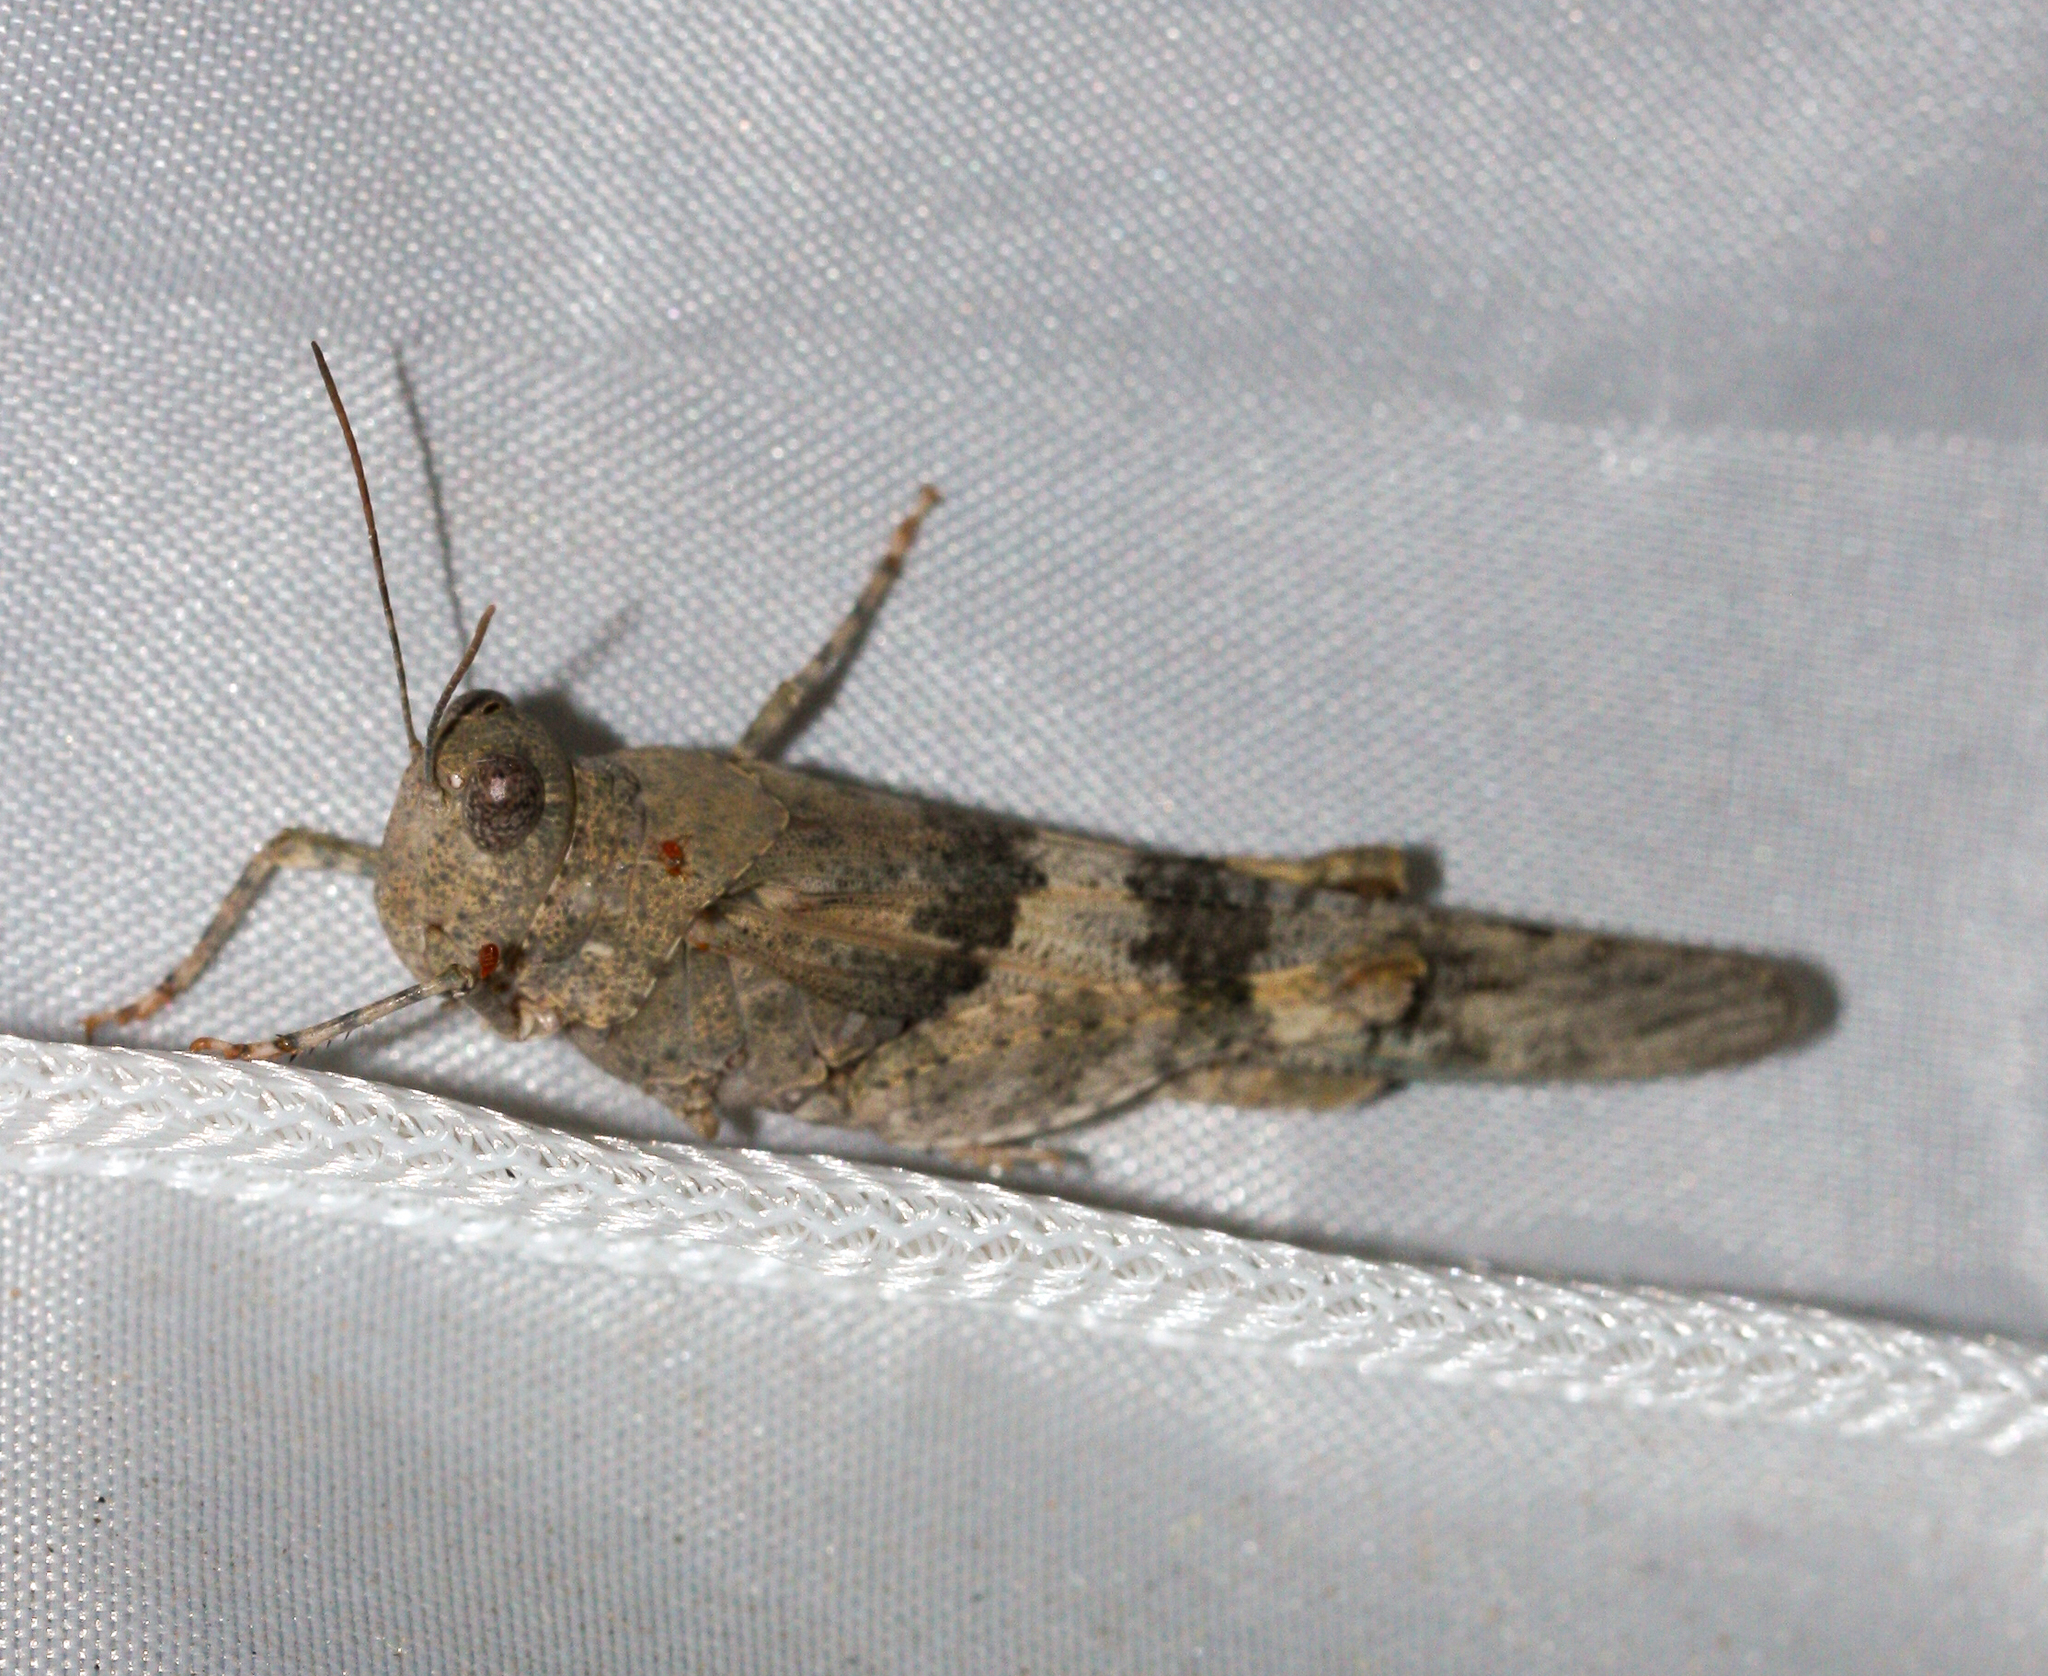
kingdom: Animalia
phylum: Arthropoda
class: Insecta
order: Orthoptera
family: Acrididae
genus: Trimerotropis
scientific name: Trimerotropis pallidipennis
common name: Pallid-winged grasshopper
